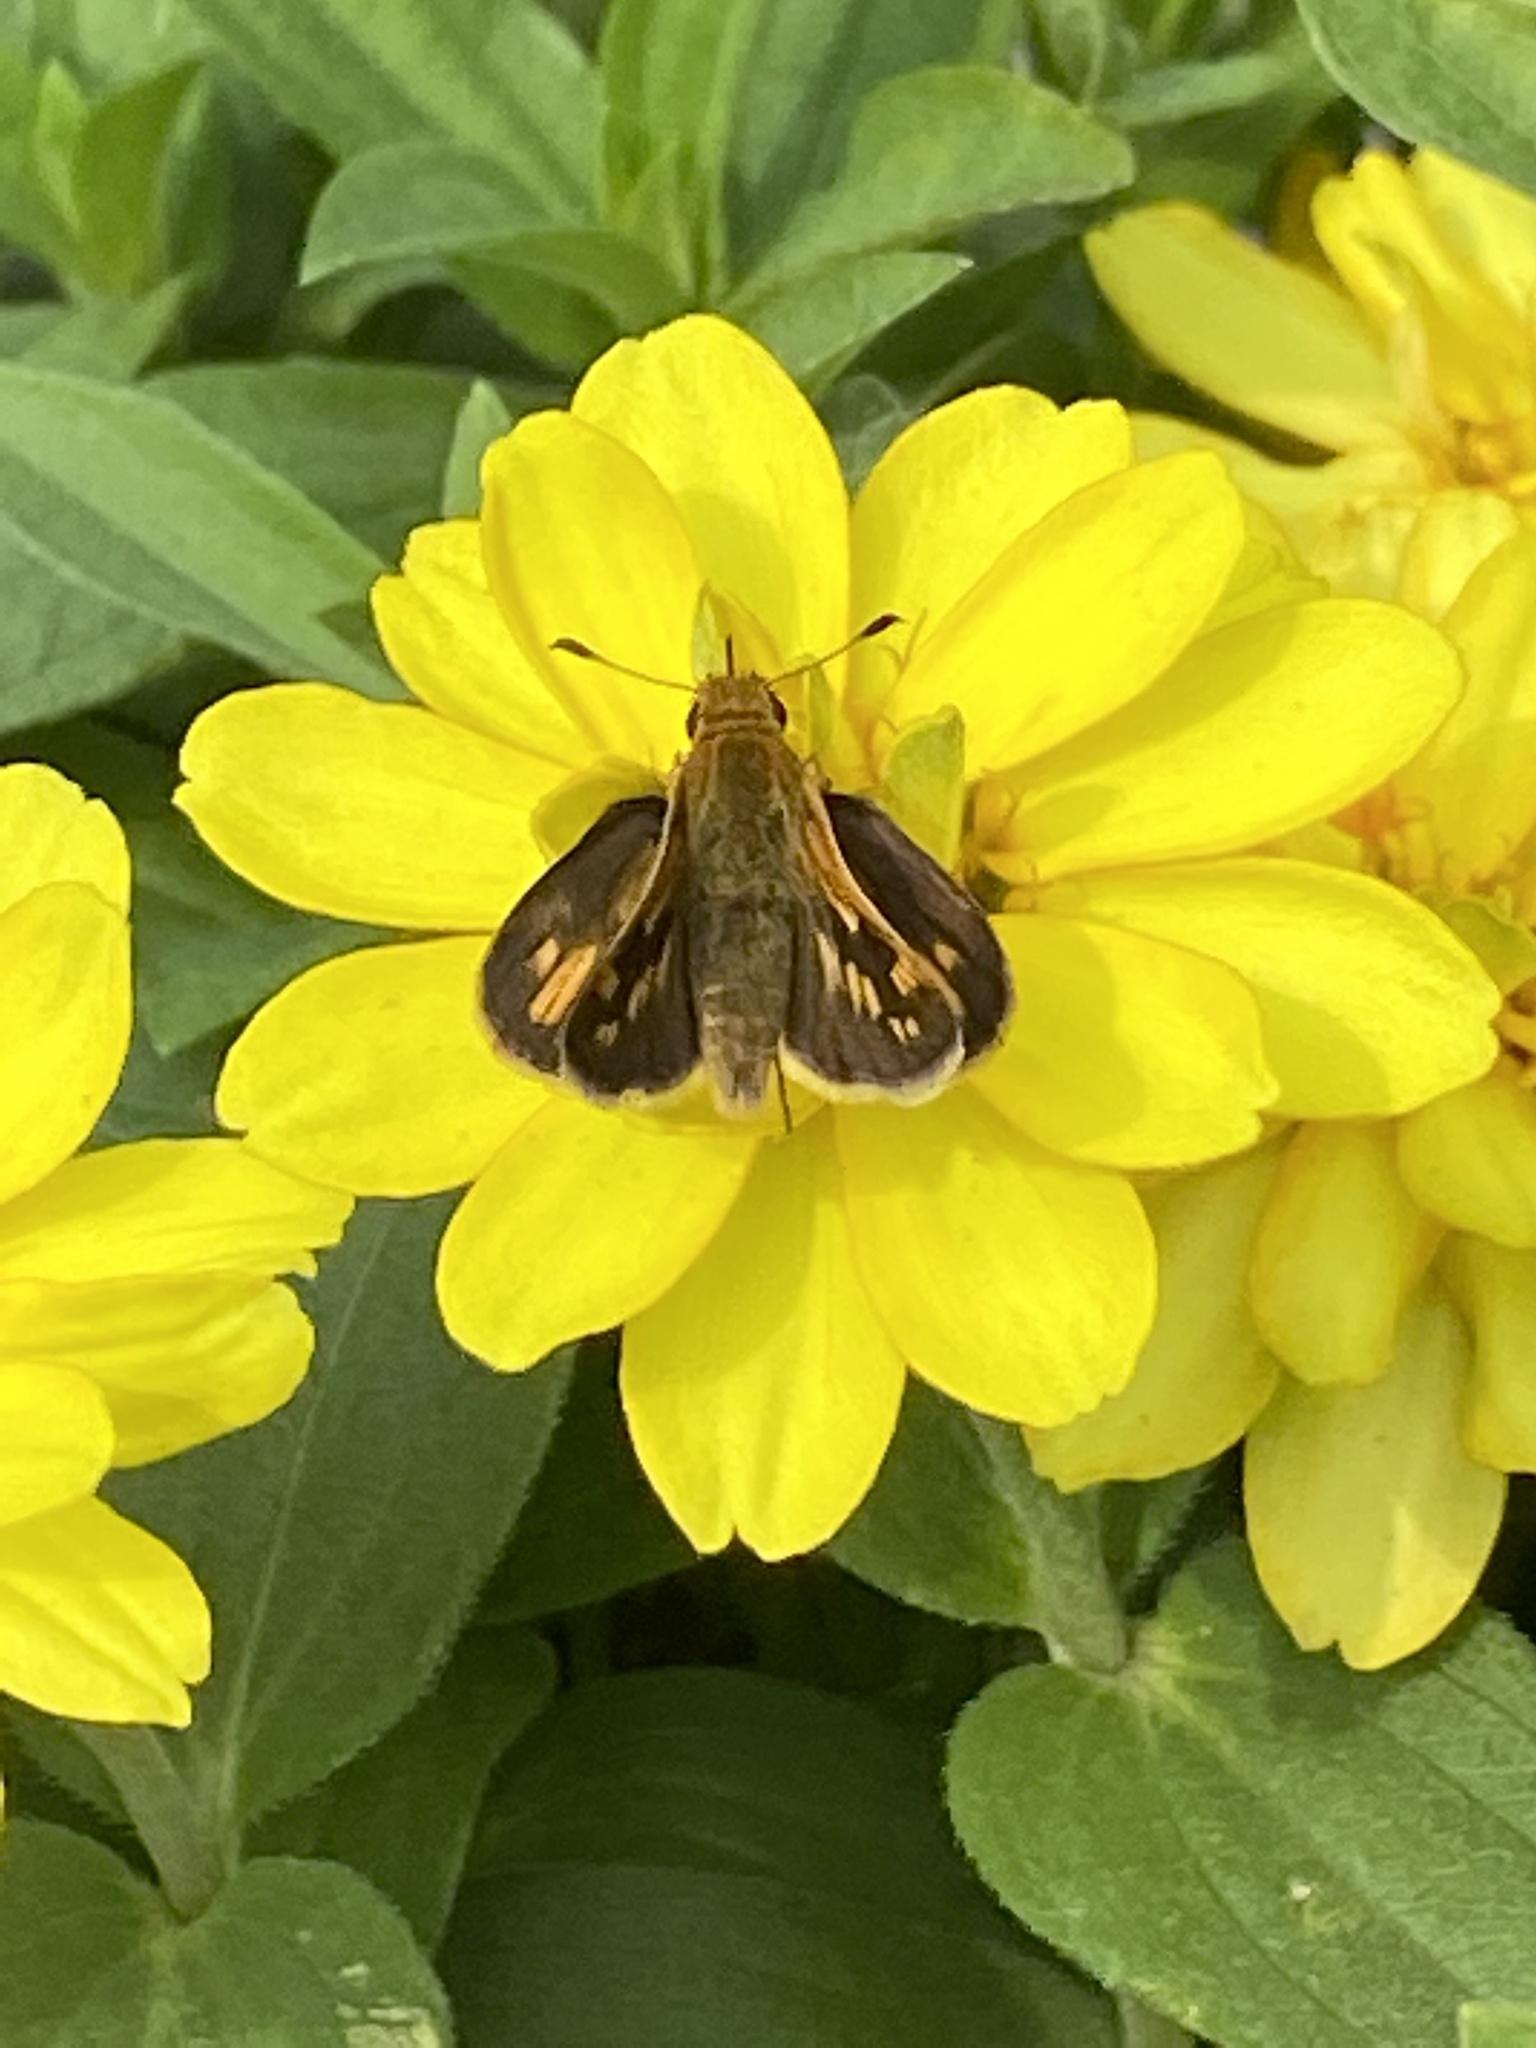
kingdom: Animalia
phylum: Arthropoda
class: Insecta
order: Lepidoptera
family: Hesperiidae
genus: Polites
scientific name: Polites coras
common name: Peck's skipper
